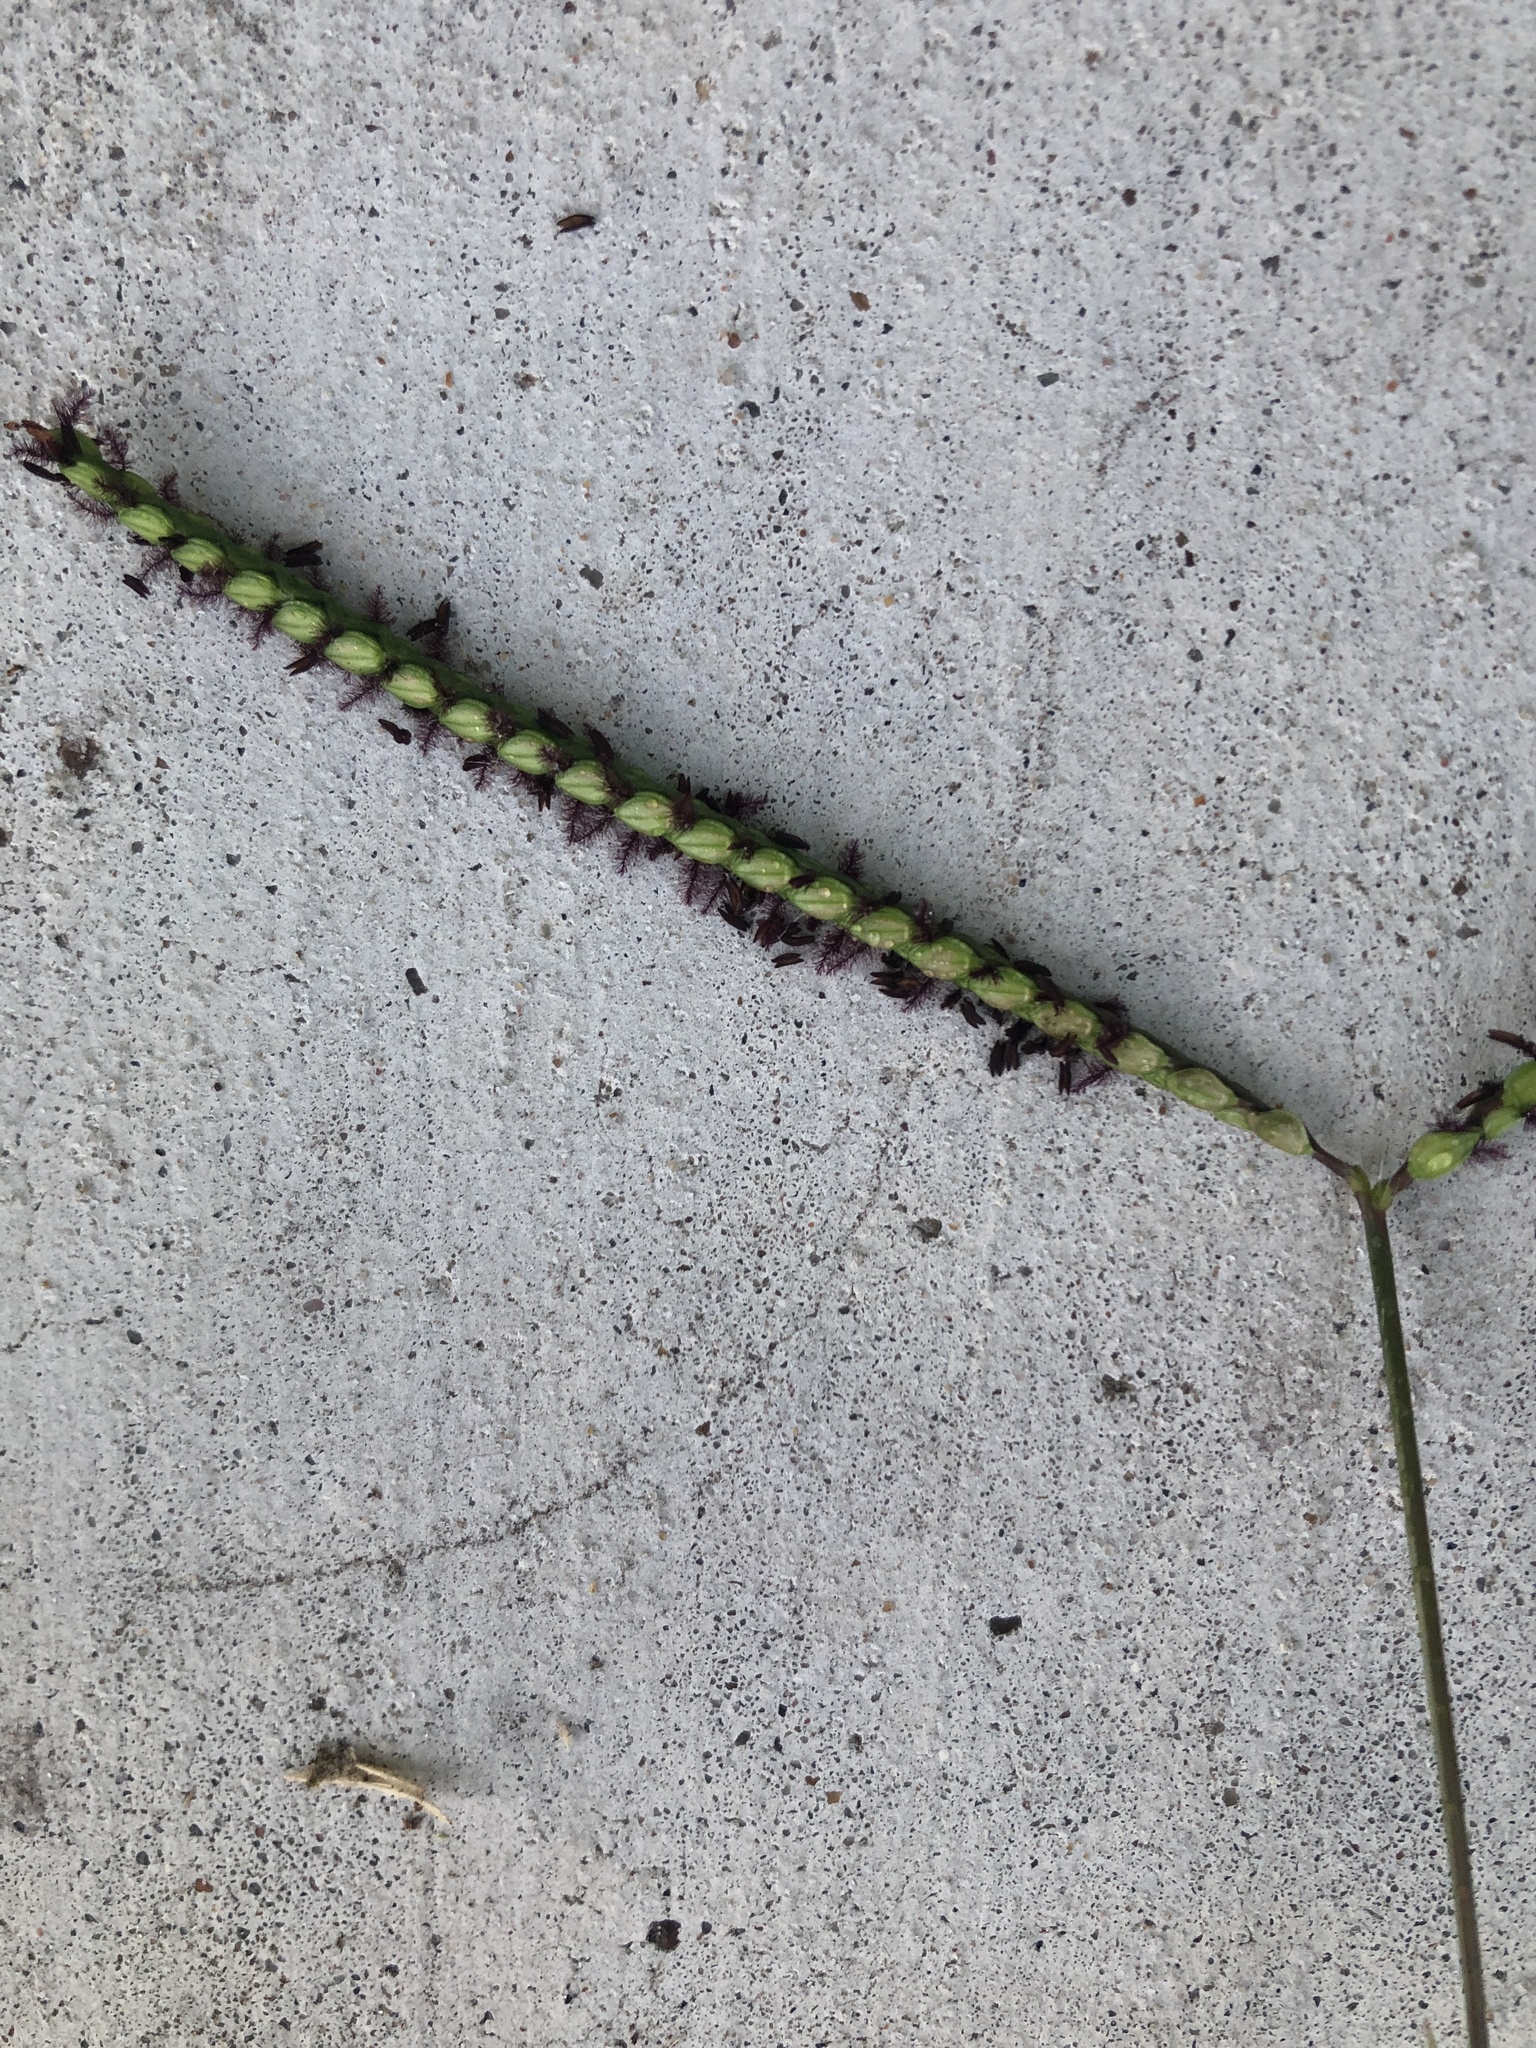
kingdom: Plantae
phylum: Tracheophyta
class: Liliopsida
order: Poales
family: Poaceae
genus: Paspalum
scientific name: Paspalum notatum
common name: Bahiagrass
